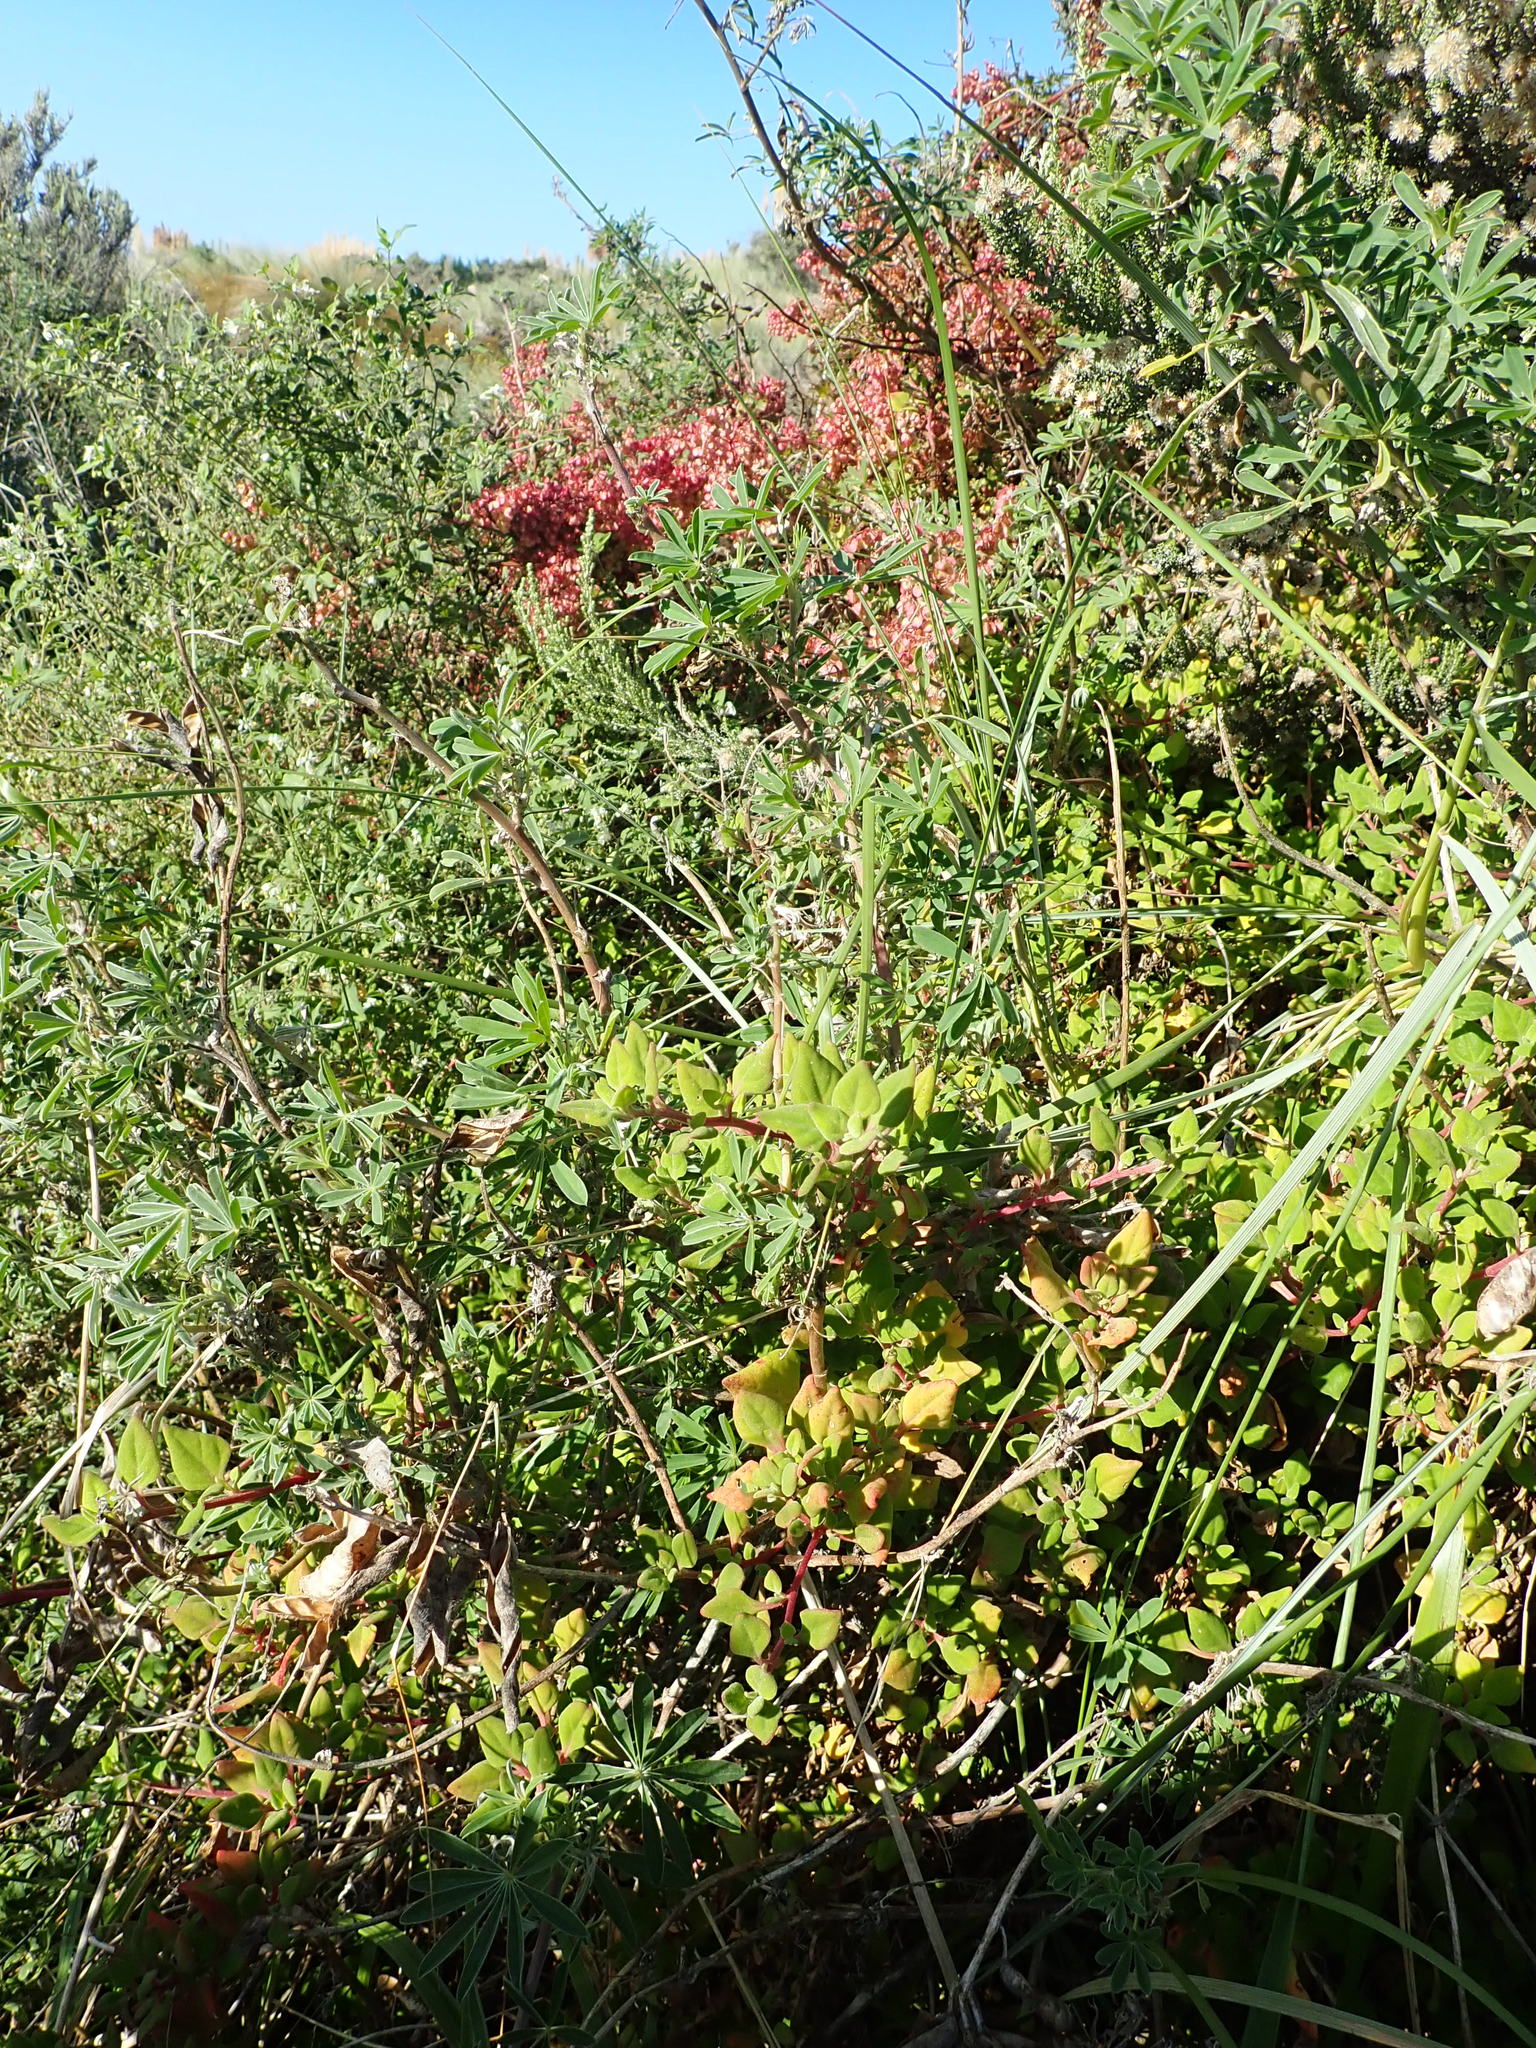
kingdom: Plantae
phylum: Tracheophyta
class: Magnoliopsida
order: Caryophyllales
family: Aizoaceae
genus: Tetragonia
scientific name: Tetragonia implexicoma
